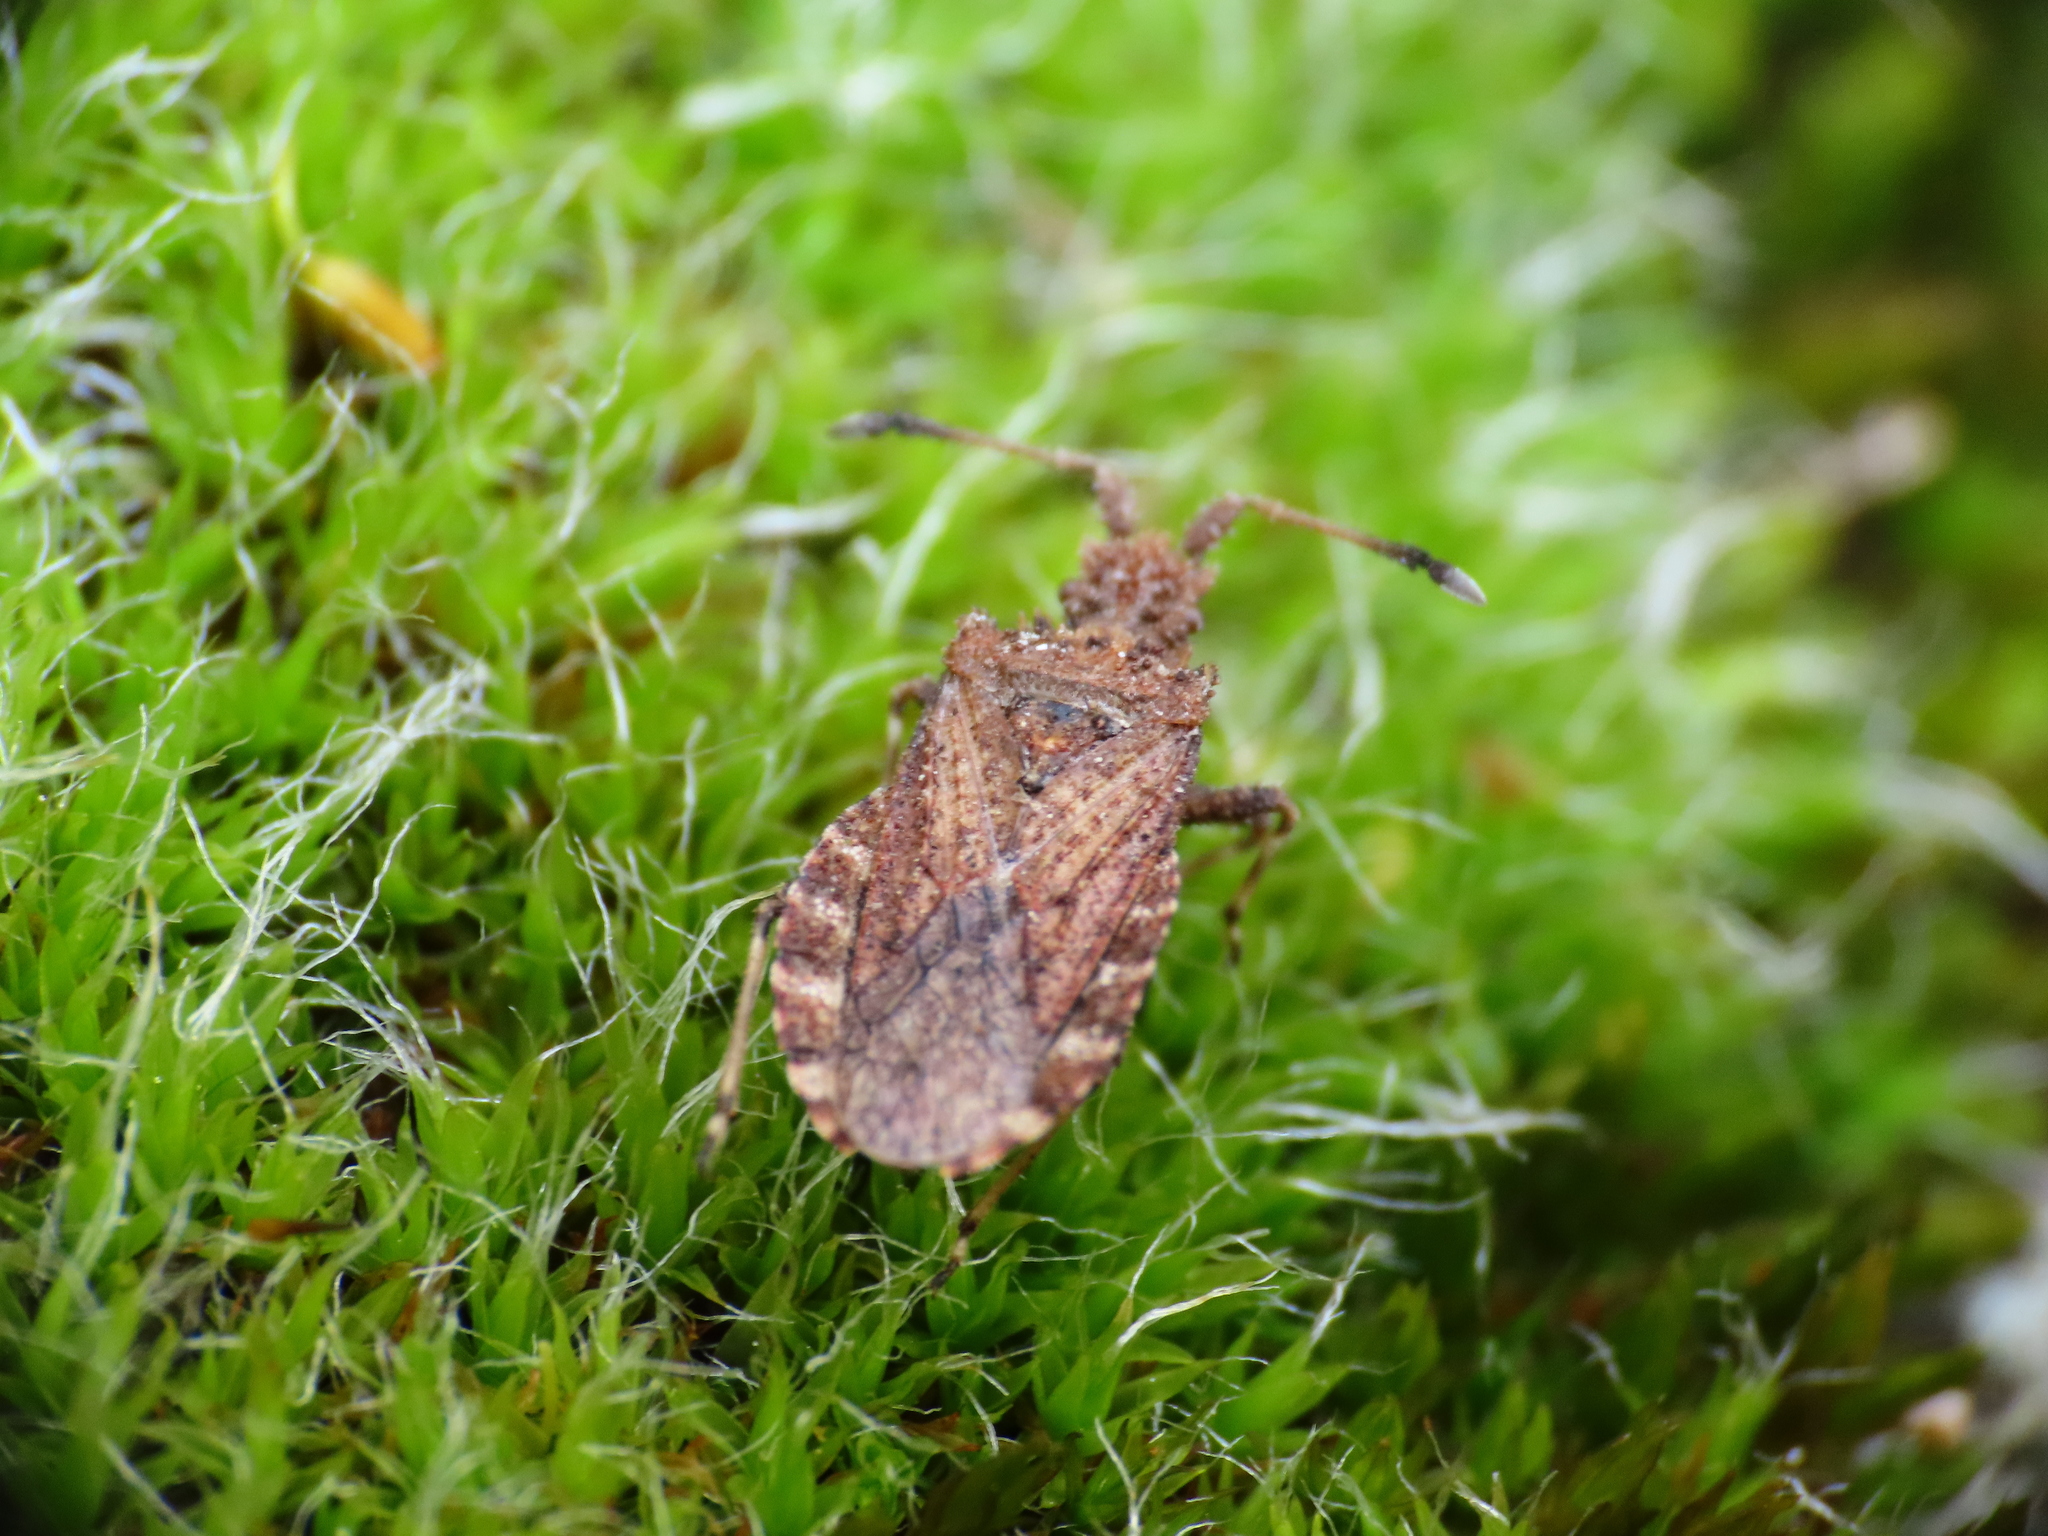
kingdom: Animalia
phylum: Arthropoda
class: Insecta
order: Hemiptera
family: Coreidae
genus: Arenocoris
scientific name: Arenocoris waltlii
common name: Breckland leatherbug
